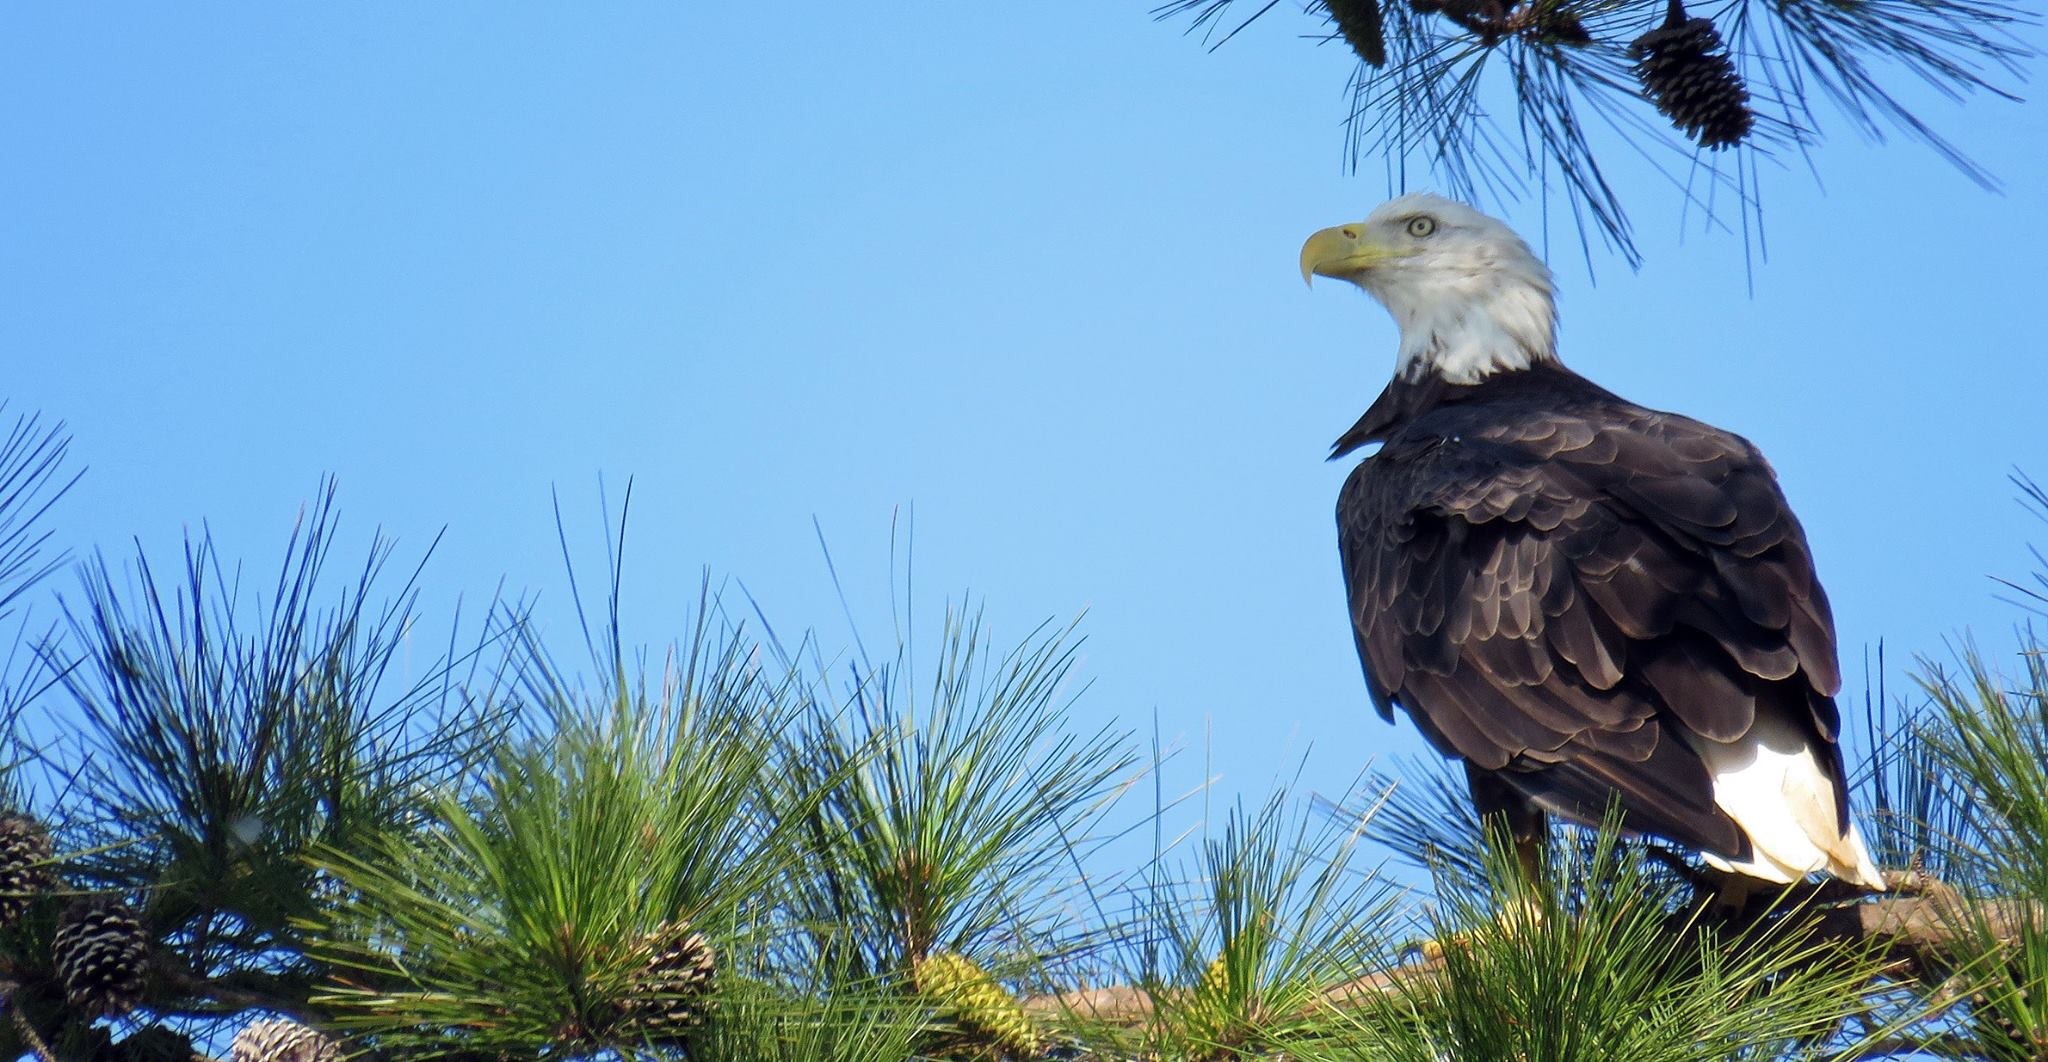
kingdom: Animalia
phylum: Chordata
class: Aves
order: Accipitriformes
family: Accipitridae
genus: Haliaeetus
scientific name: Haliaeetus leucocephalus
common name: Bald eagle
